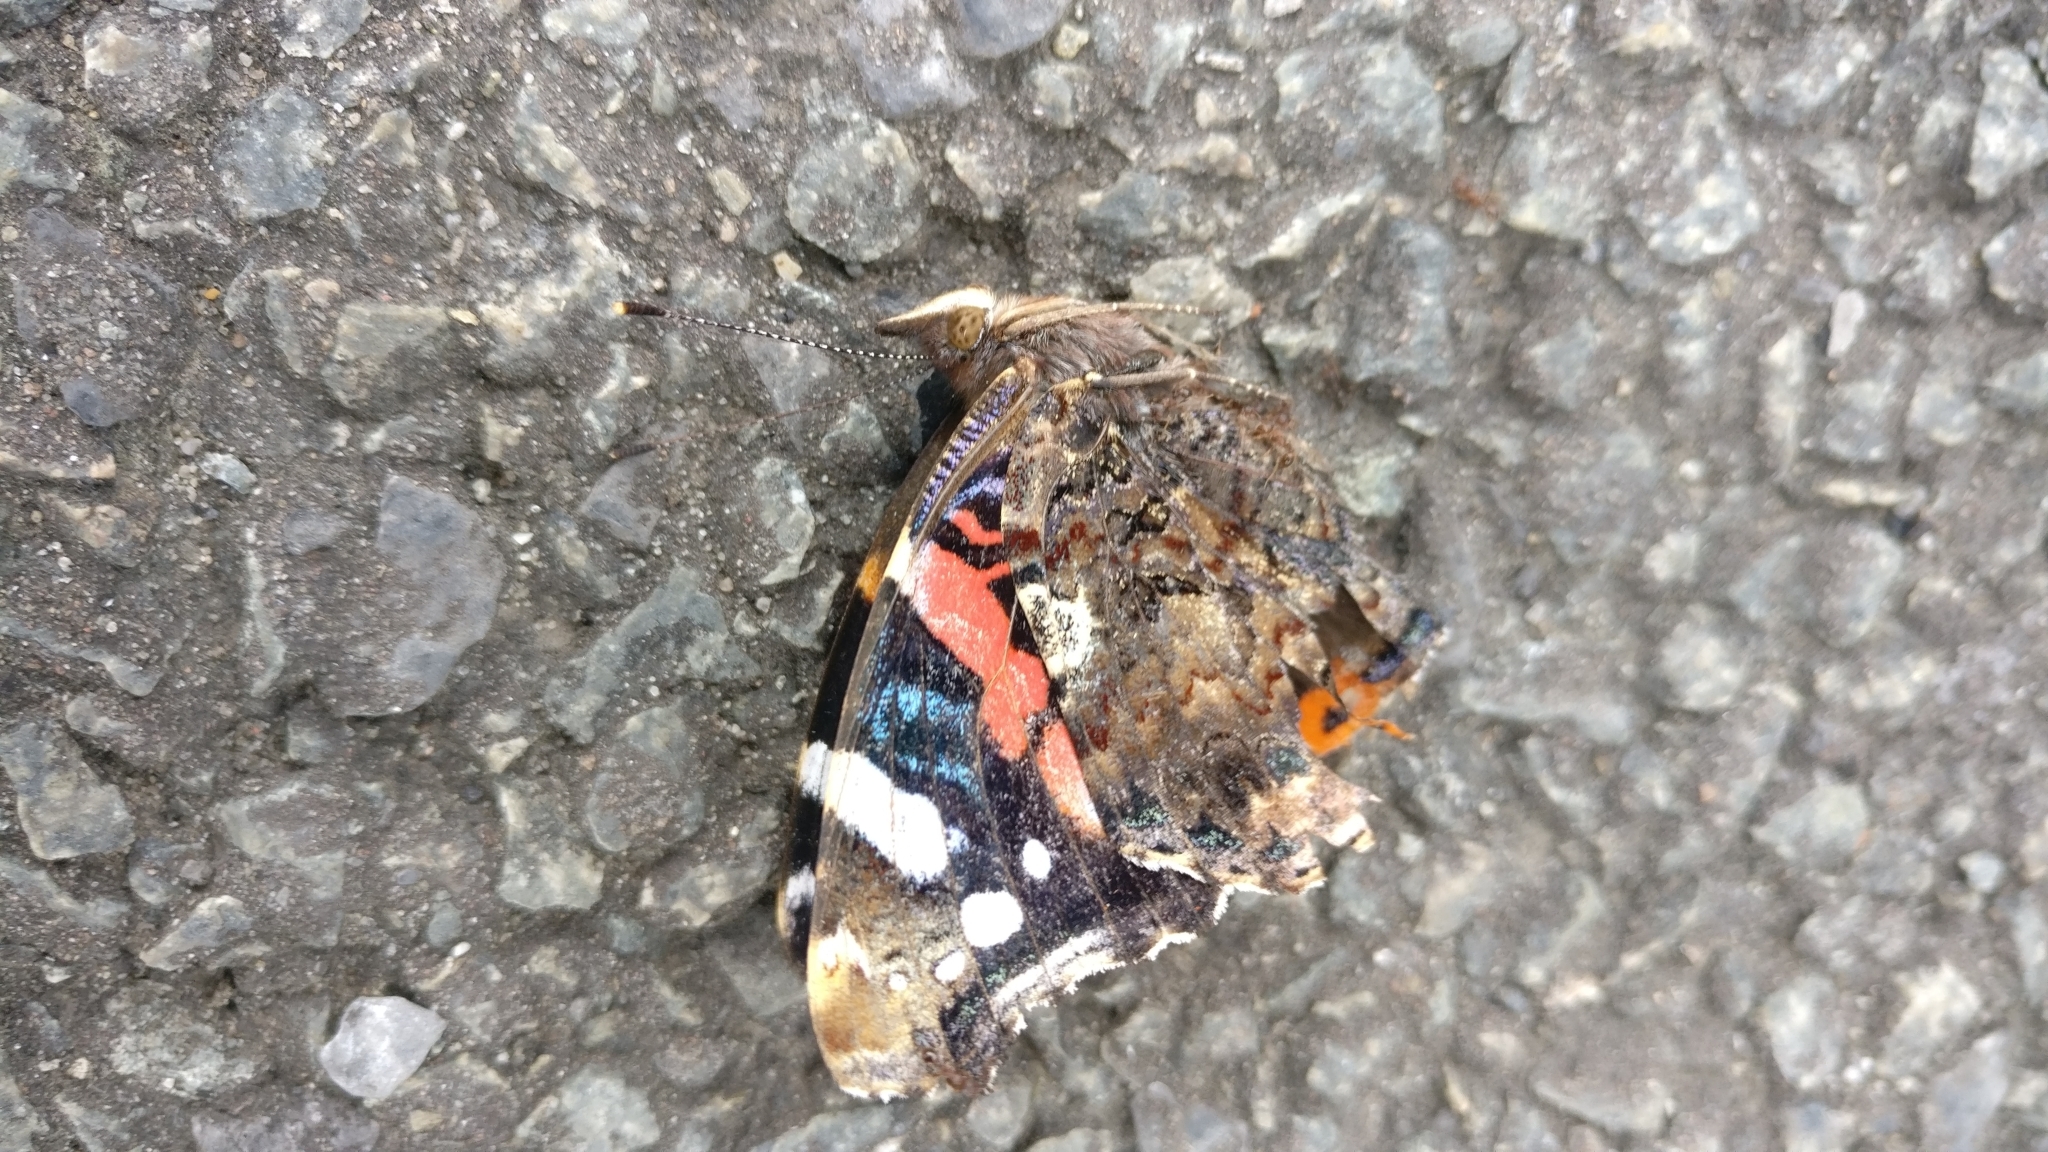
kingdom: Animalia
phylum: Arthropoda
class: Insecta
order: Lepidoptera
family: Nymphalidae
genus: Vanessa
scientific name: Vanessa atalanta
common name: Red admiral
